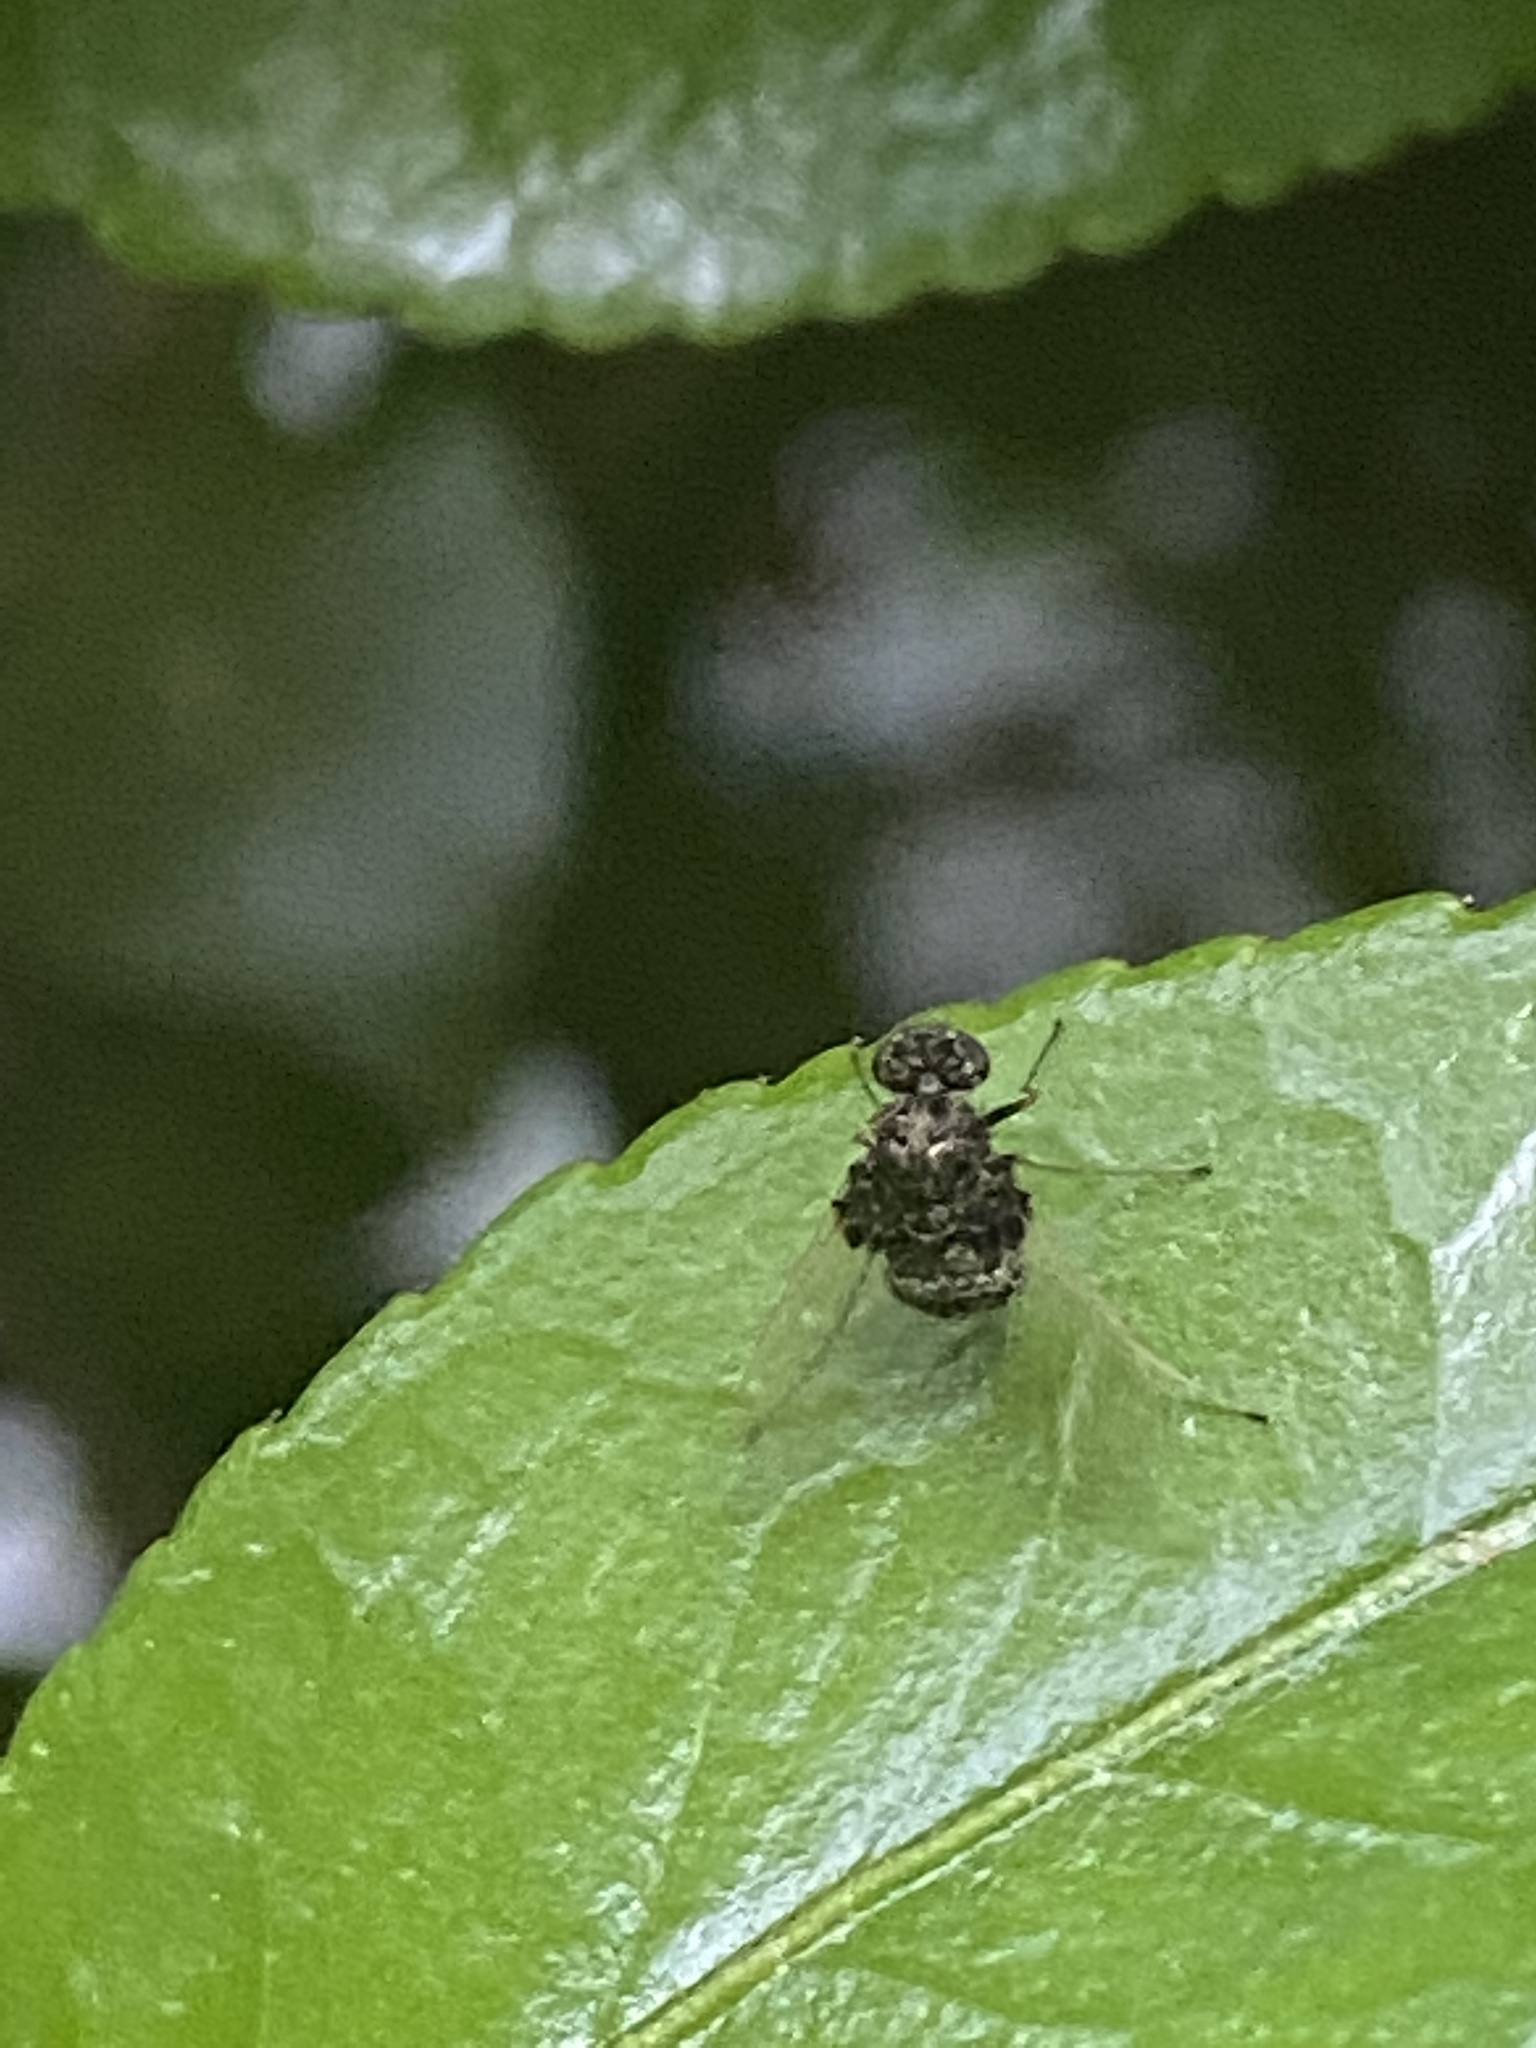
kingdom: Animalia
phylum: Arthropoda
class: Insecta
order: Diptera
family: Rhagionidae
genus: Chrysopilus
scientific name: Chrysopilus basilaris
